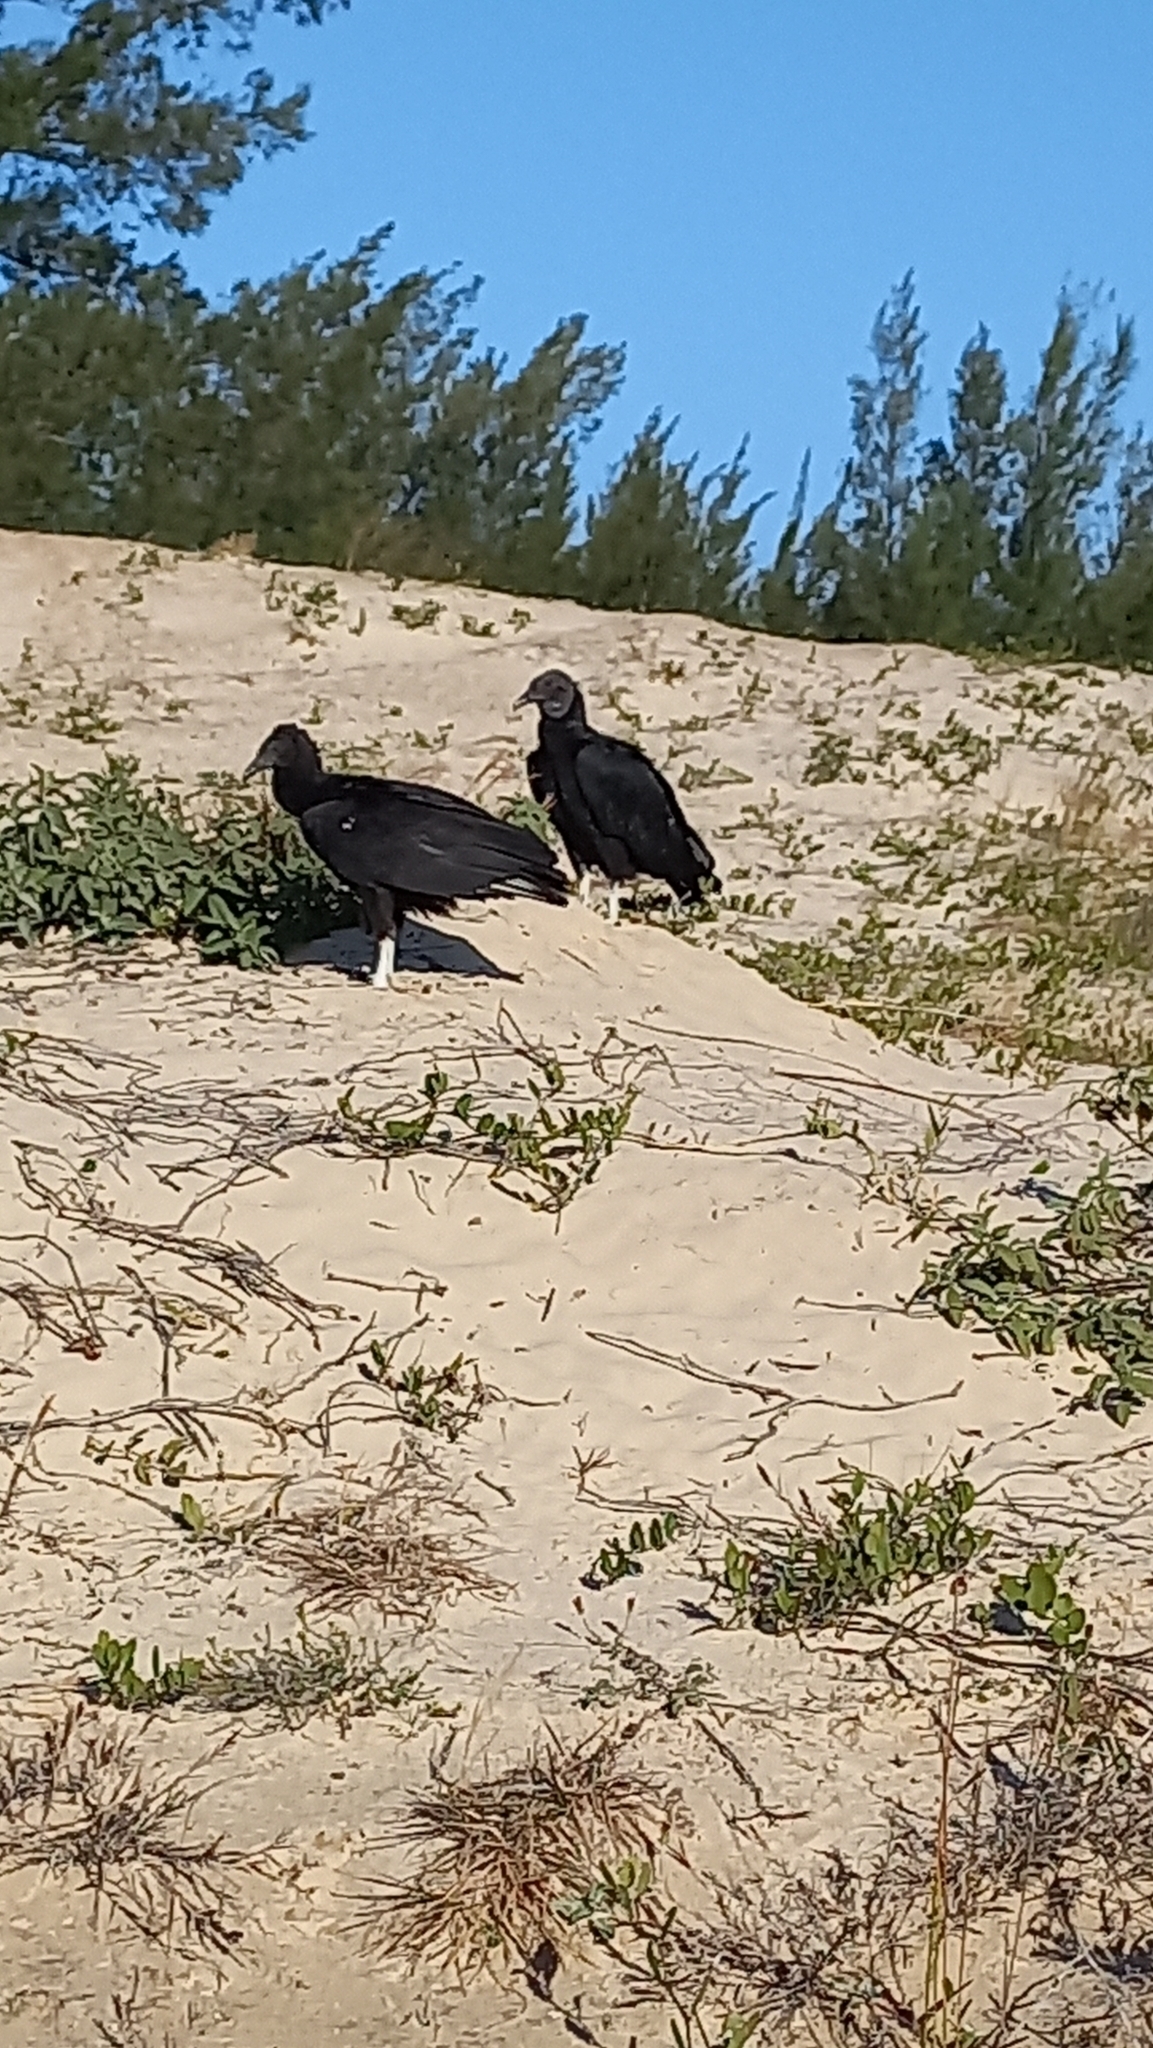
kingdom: Animalia
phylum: Chordata
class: Aves
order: Accipitriformes
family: Cathartidae
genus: Coragyps
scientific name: Coragyps atratus
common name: Black vulture
